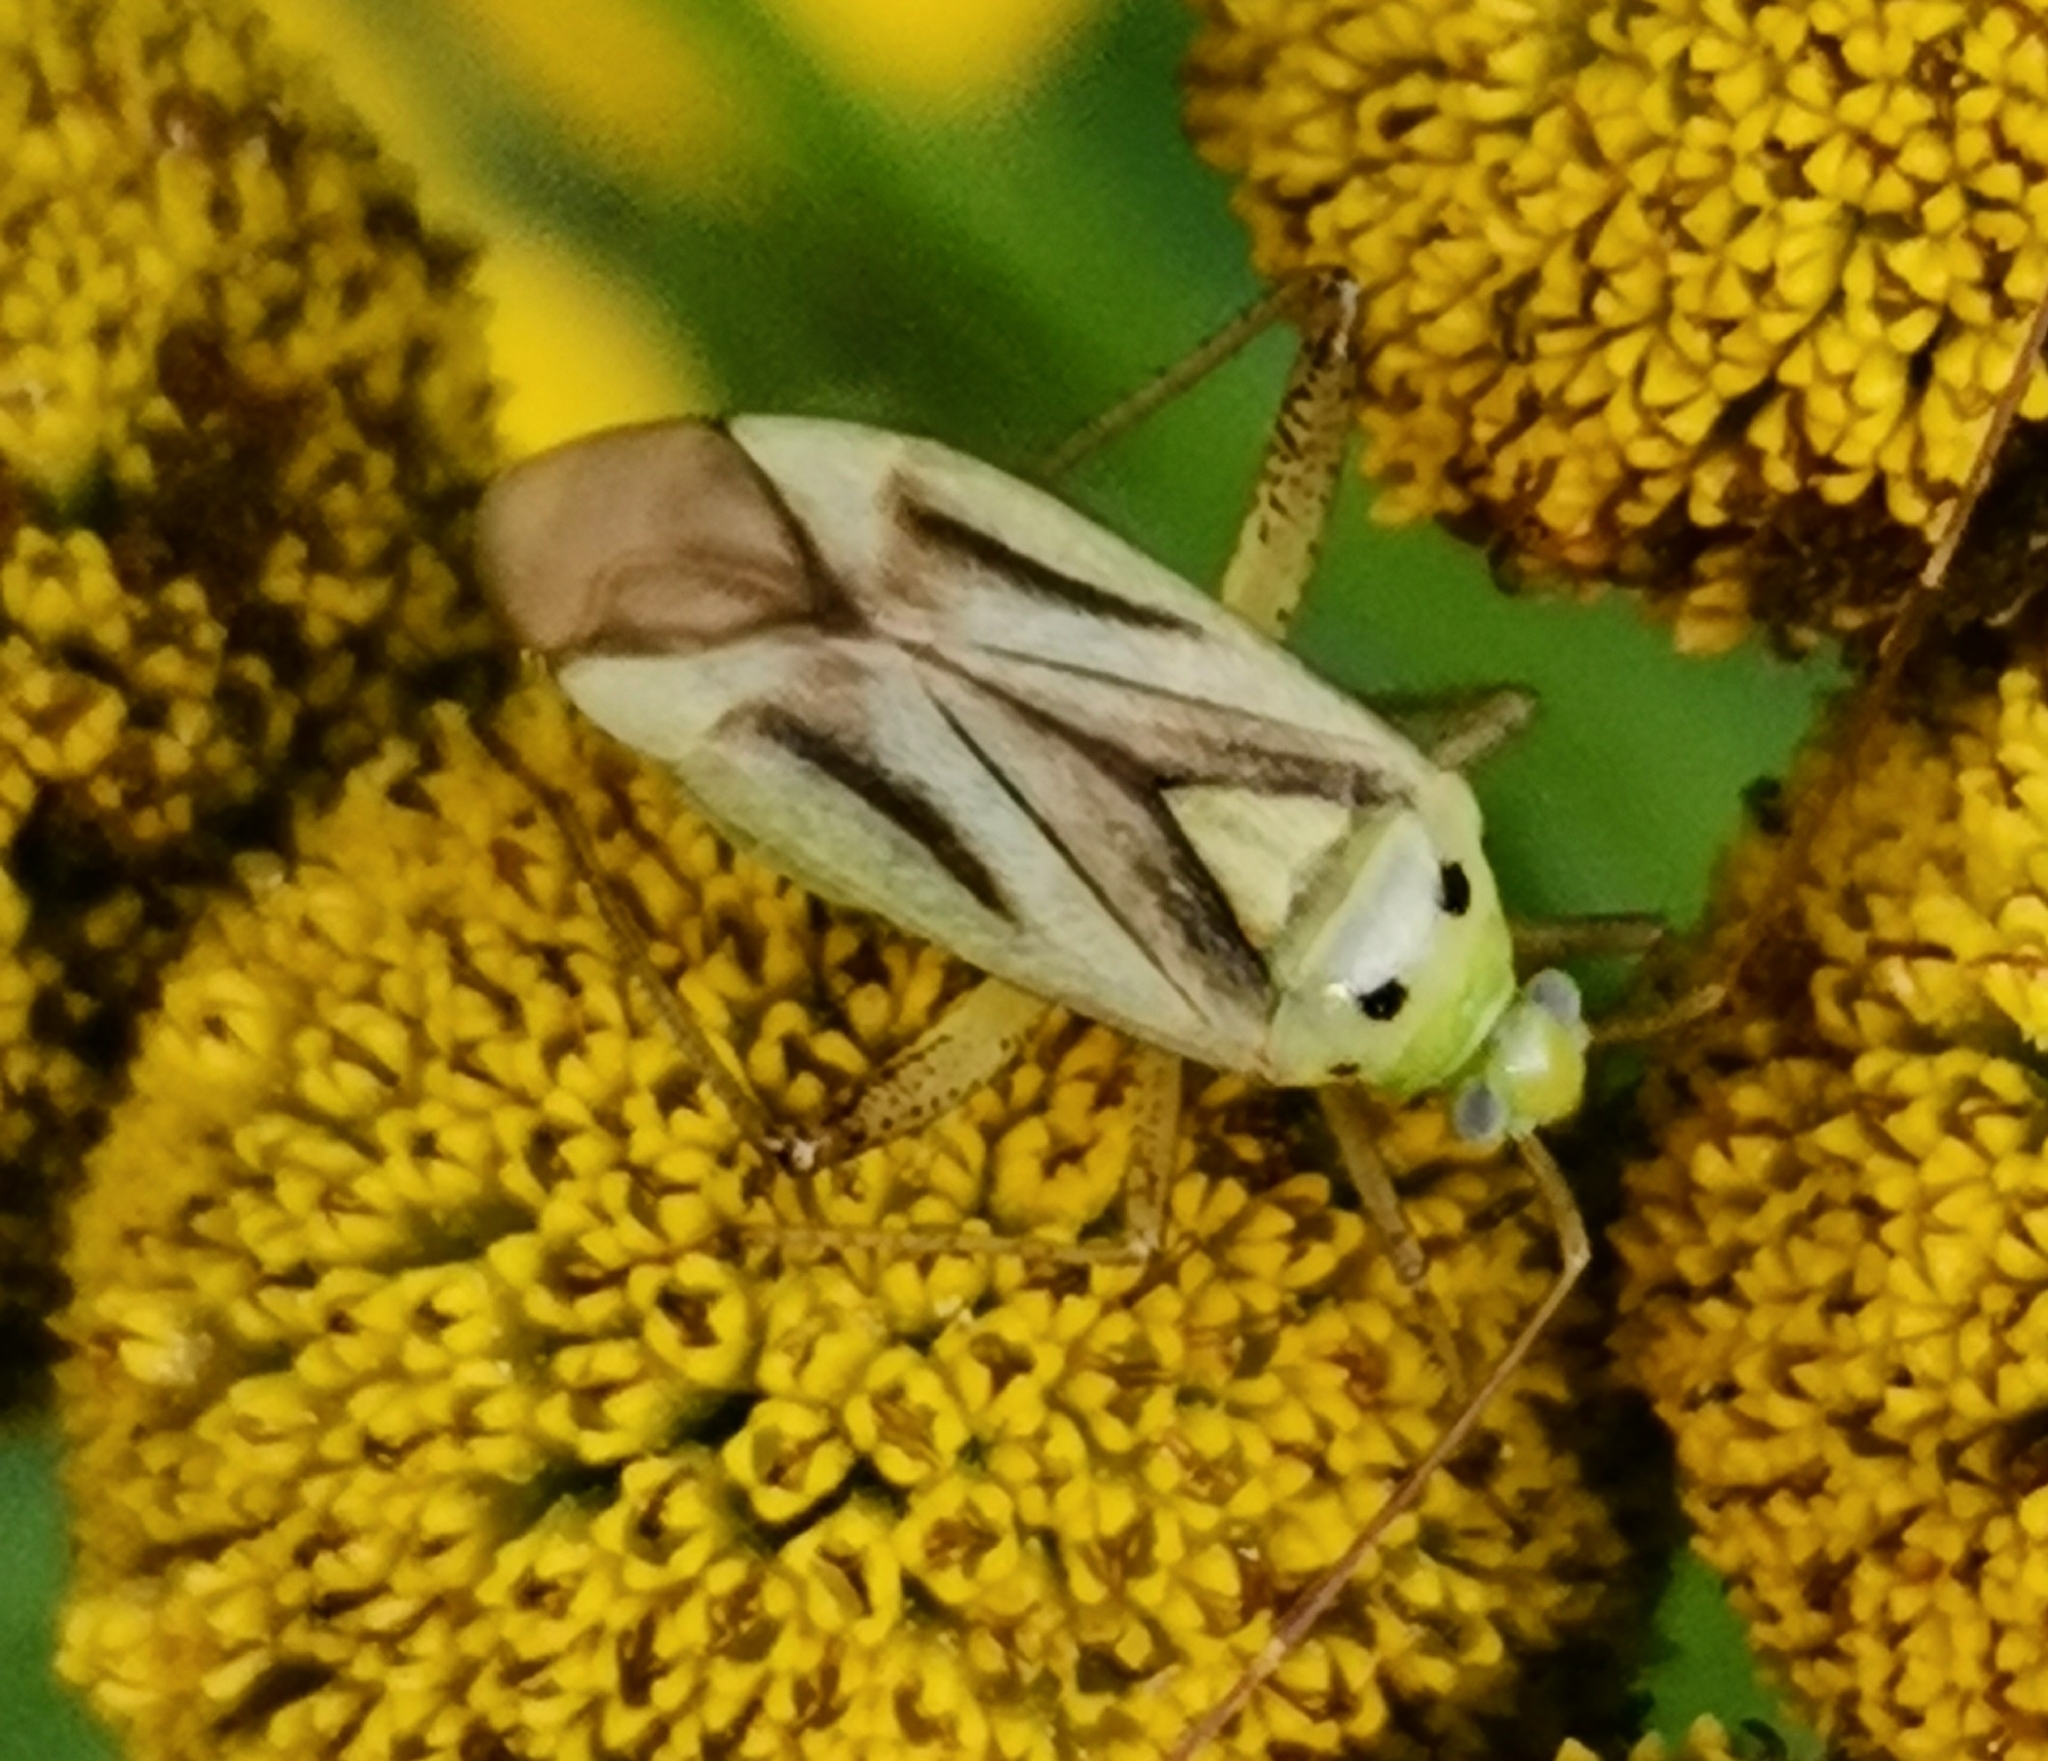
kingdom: Animalia
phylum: Arthropoda
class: Insecta
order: Hemiptera
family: Miridae
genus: Adelphocoris
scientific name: Adelphocoris quadripunctatus
